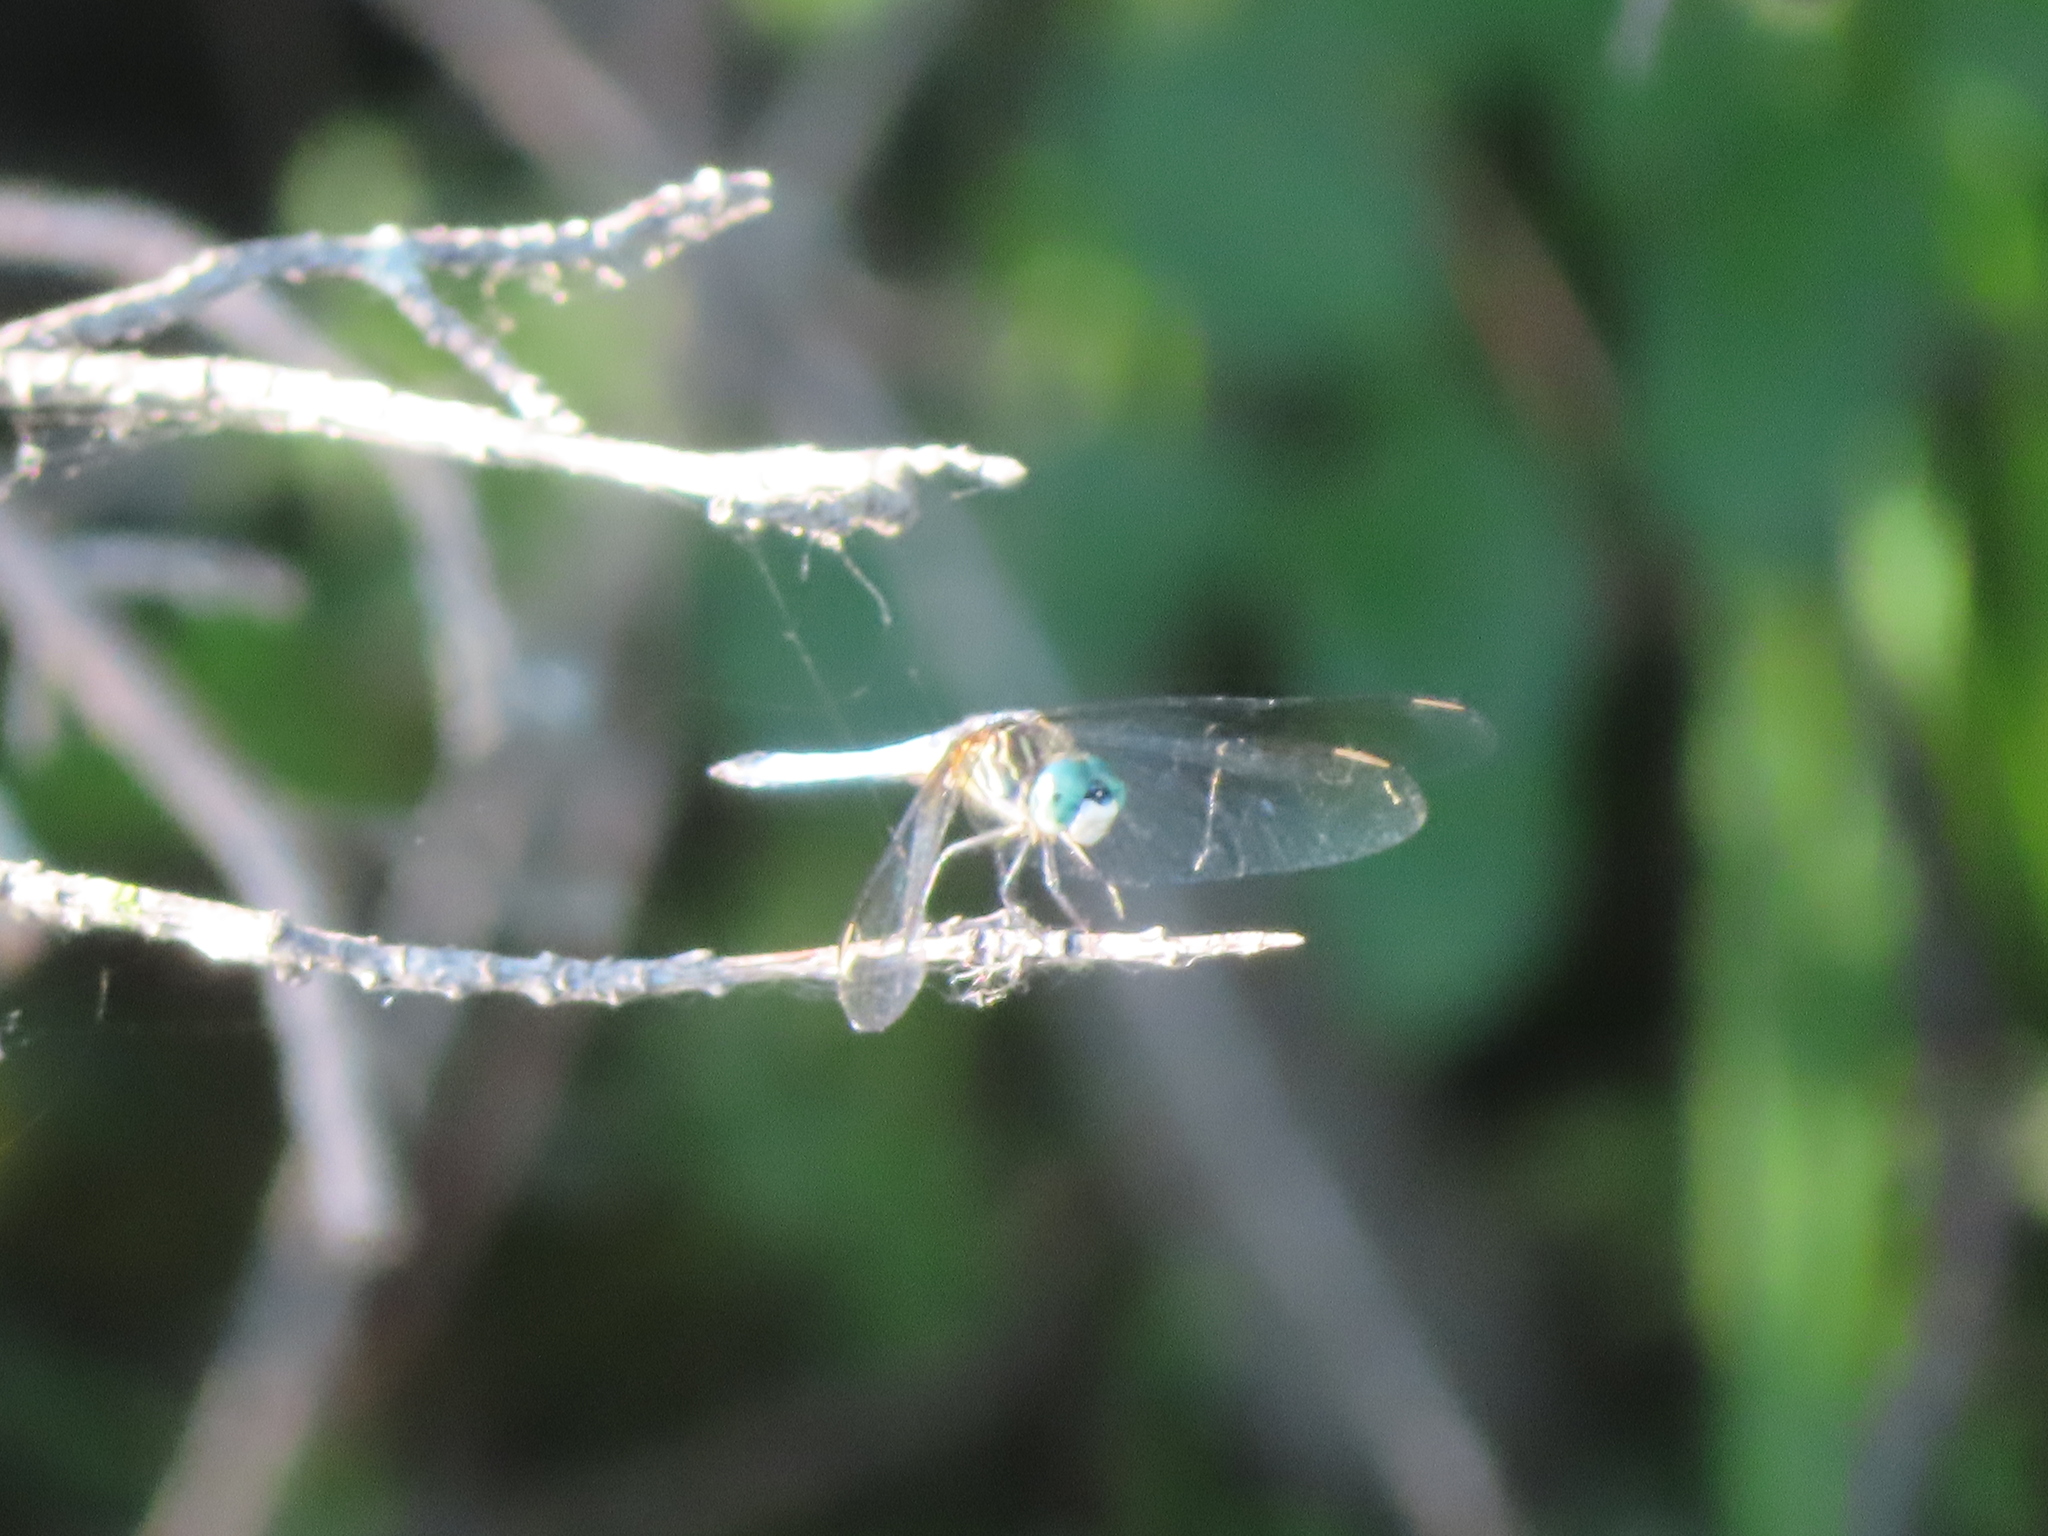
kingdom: Animalia
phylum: Arthropoda
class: Insecta
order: Odonata
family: Libellulidae
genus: Pachydiplax
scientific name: Pachydiplax longipennis
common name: Blue dasher
